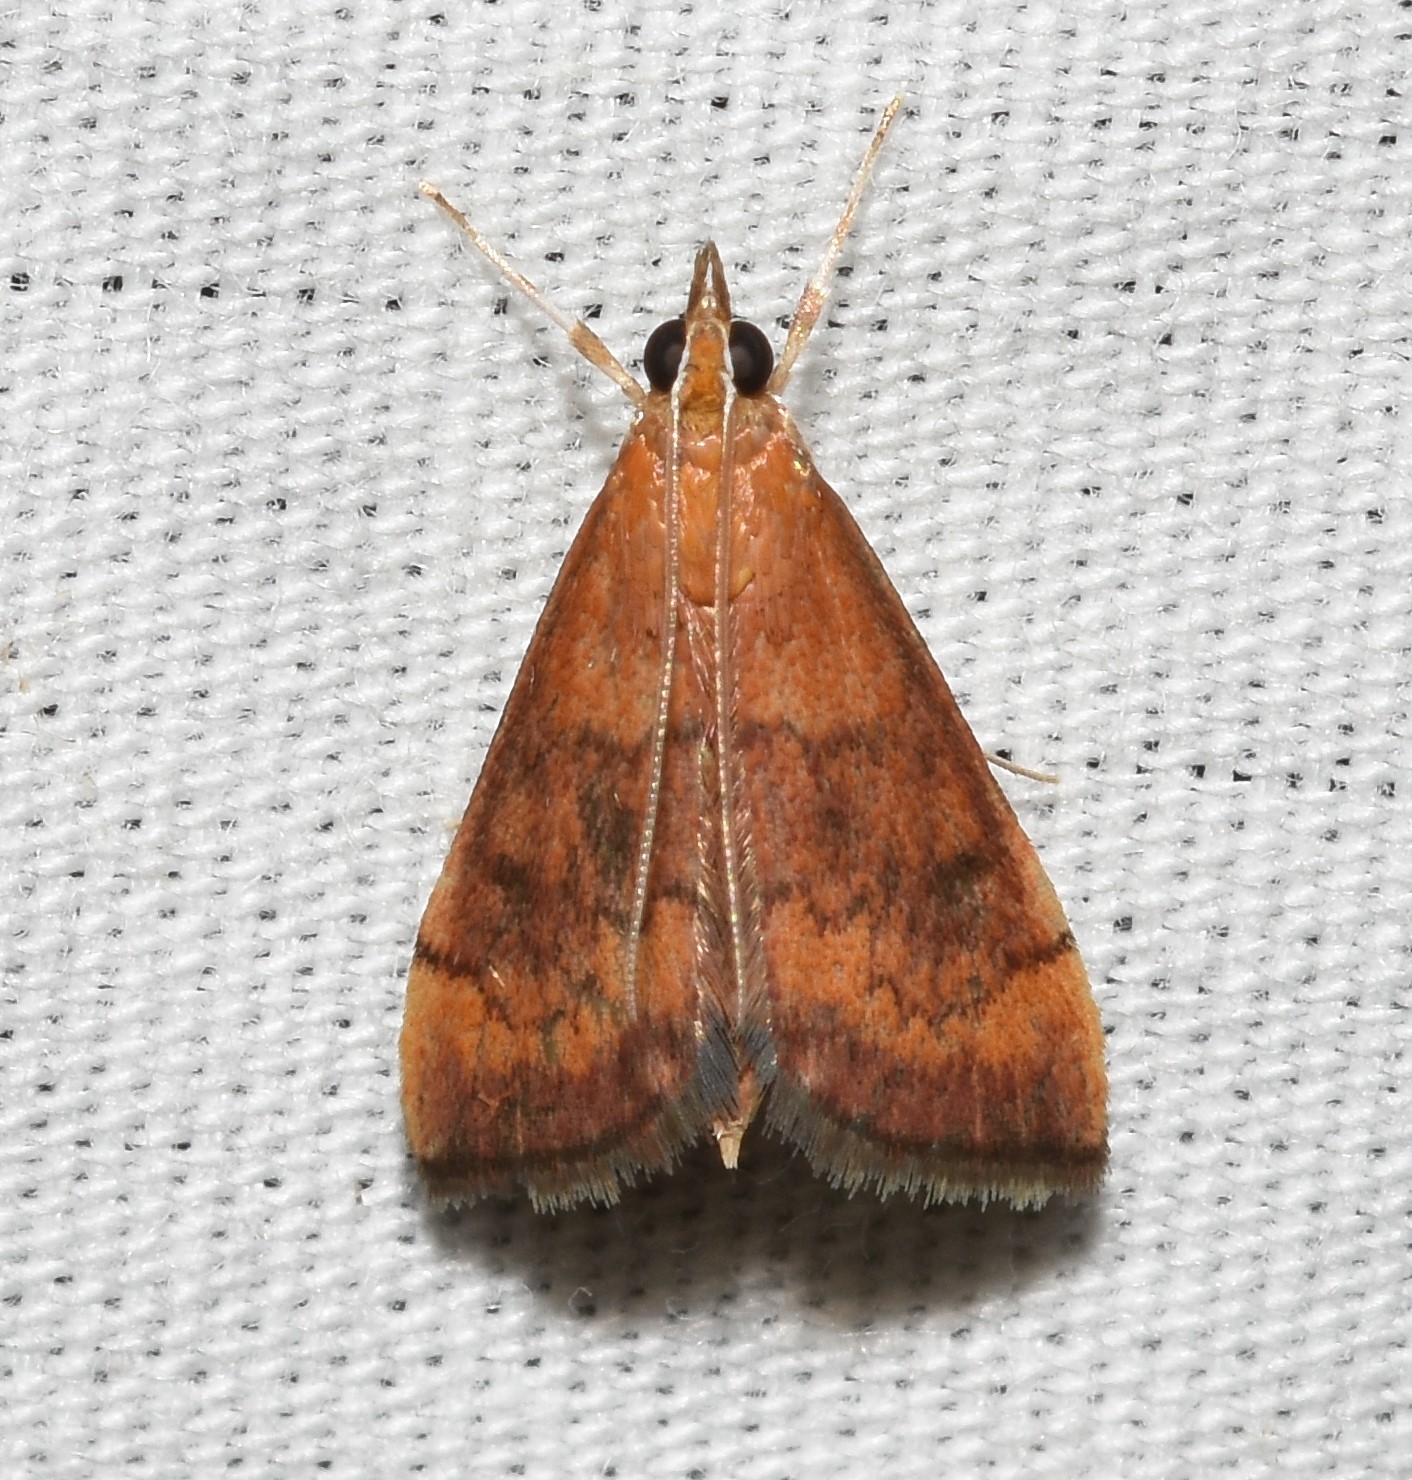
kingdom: Animalia
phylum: Arthropoda
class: Insecta
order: Lepidoptera
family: Crambidae
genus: Pyrausta
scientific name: Pyrausta rubricalis
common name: Variable reddish pyrausta
